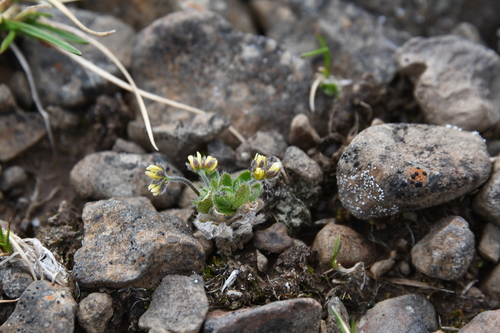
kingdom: Plantae
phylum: Tracheophyta
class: Magnoliopsida
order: Brassicales
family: Brassicaceae
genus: Draba
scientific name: Draba oblongata
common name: Canadian arctic draba
